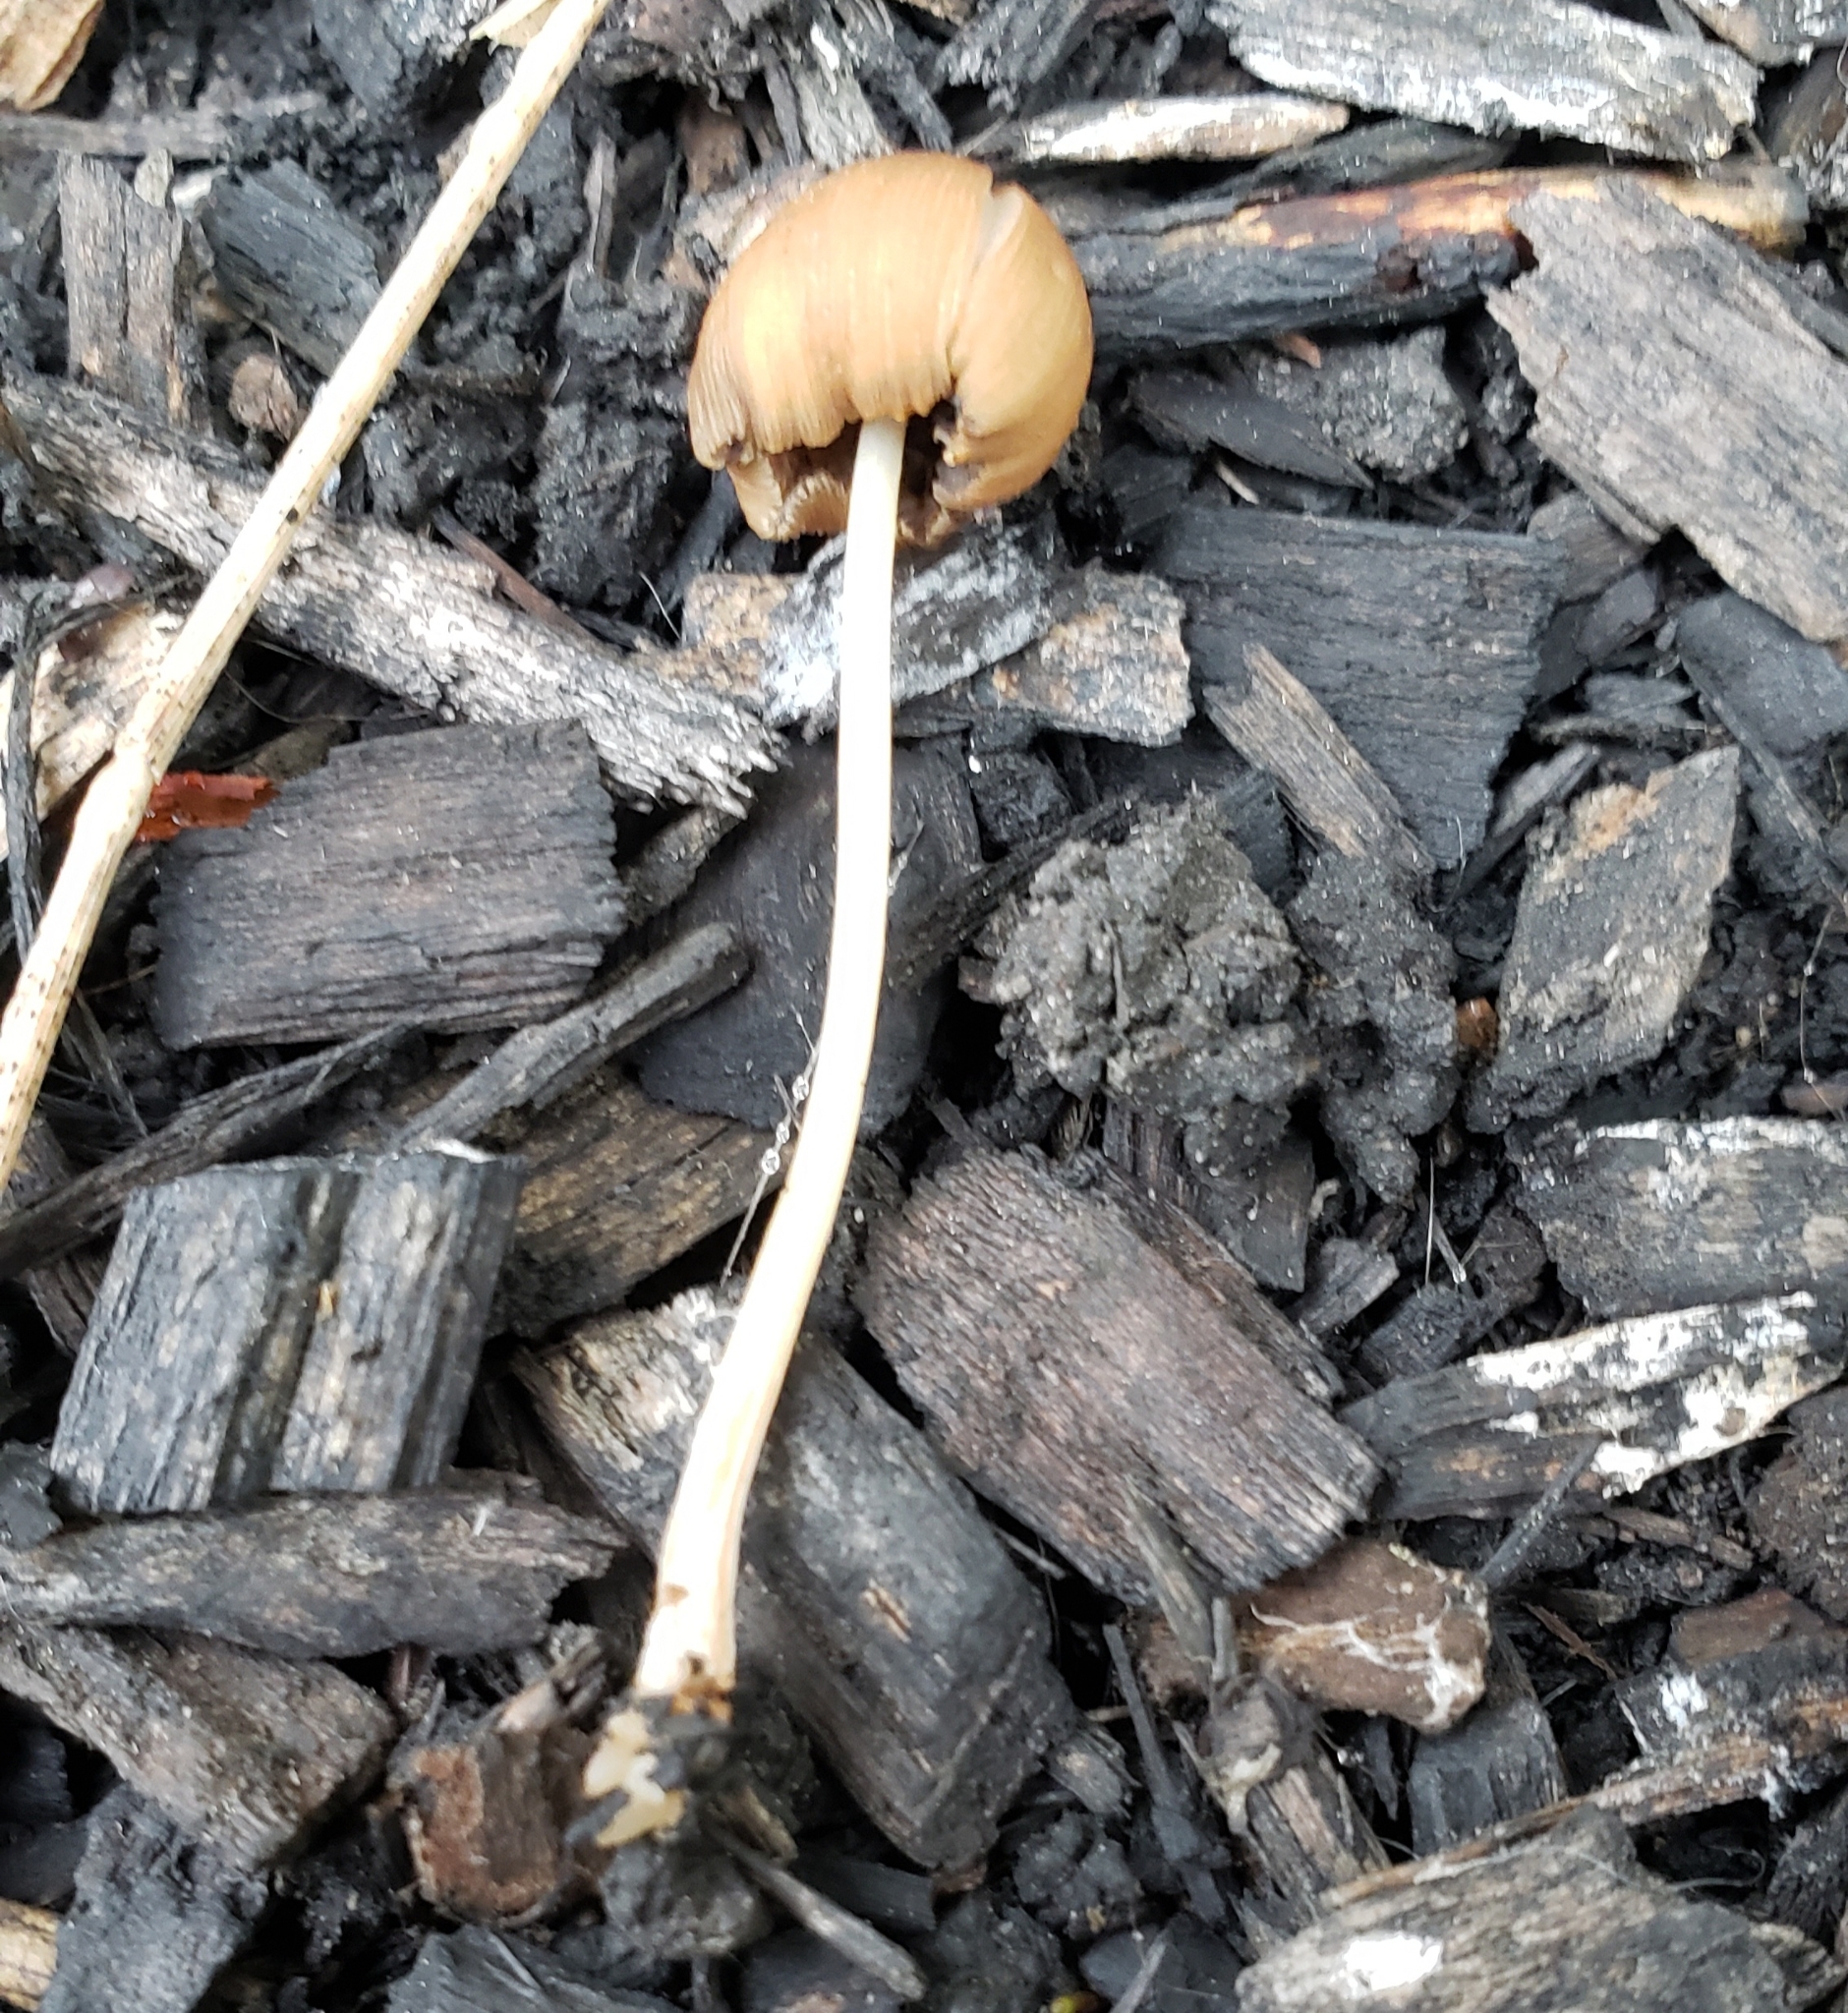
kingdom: Fungi
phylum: Basidiomycota
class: Agaricomycetes
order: Agaricales
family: Psathyrellaceae
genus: Parasola
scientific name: Parasola auricoma
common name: Goldenhaired inkcap
